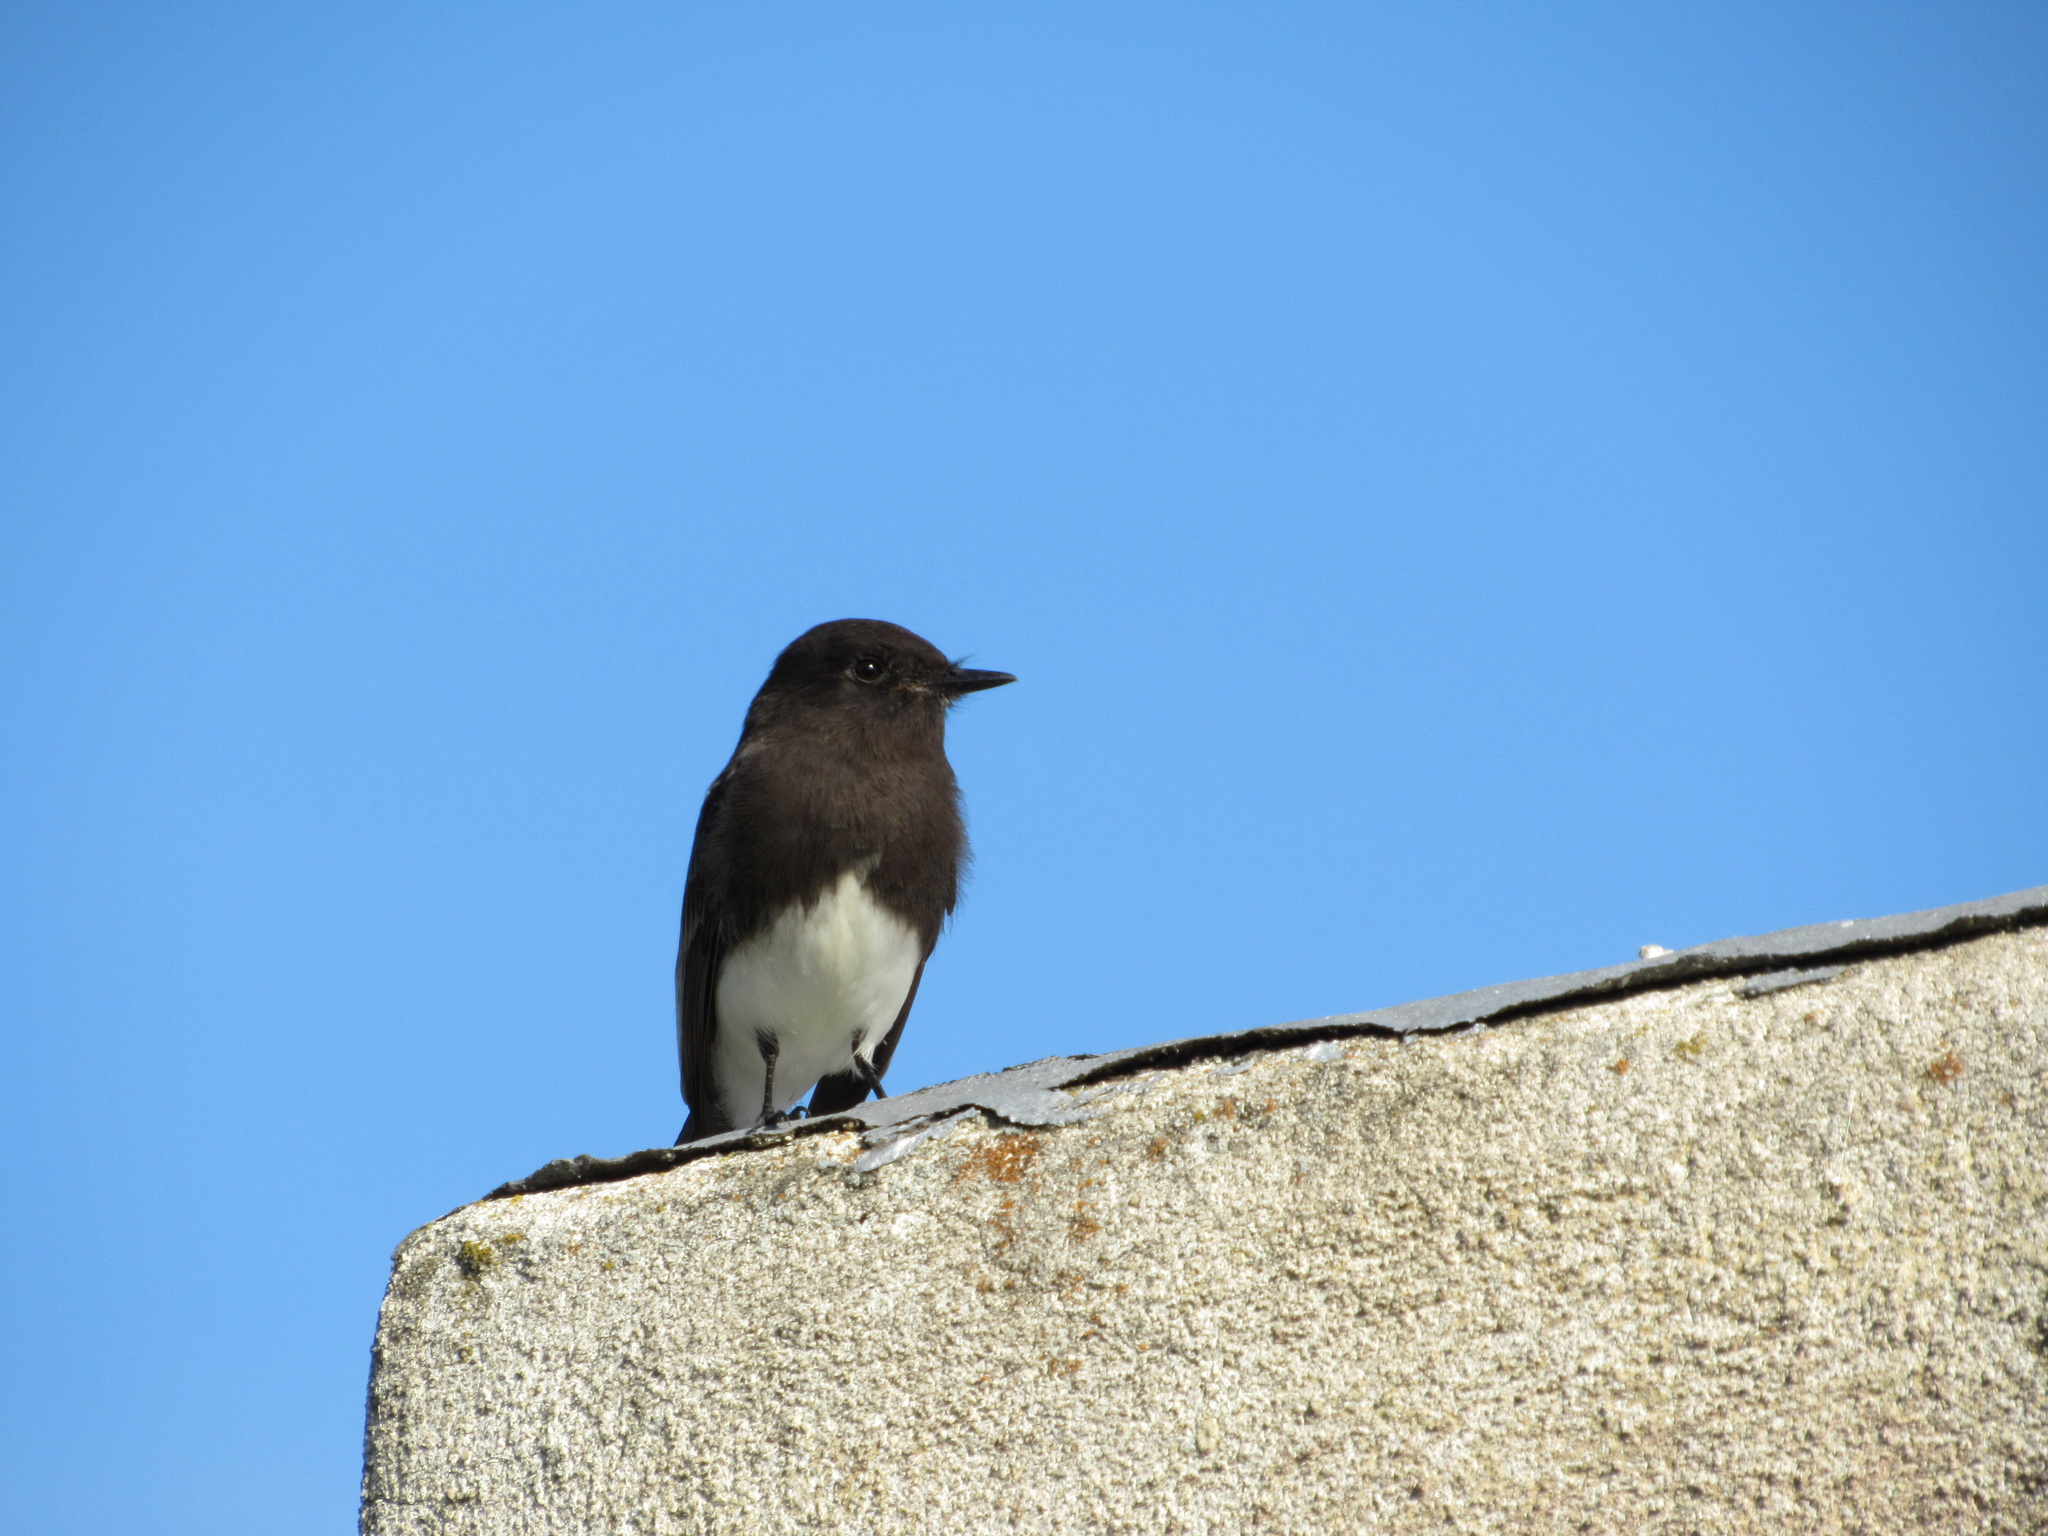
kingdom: Animalia
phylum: Chordata
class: Aves
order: Passeriformes
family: Tyrannidae
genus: Sayornis
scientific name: Sayornis nigricans
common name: Black phoebe
